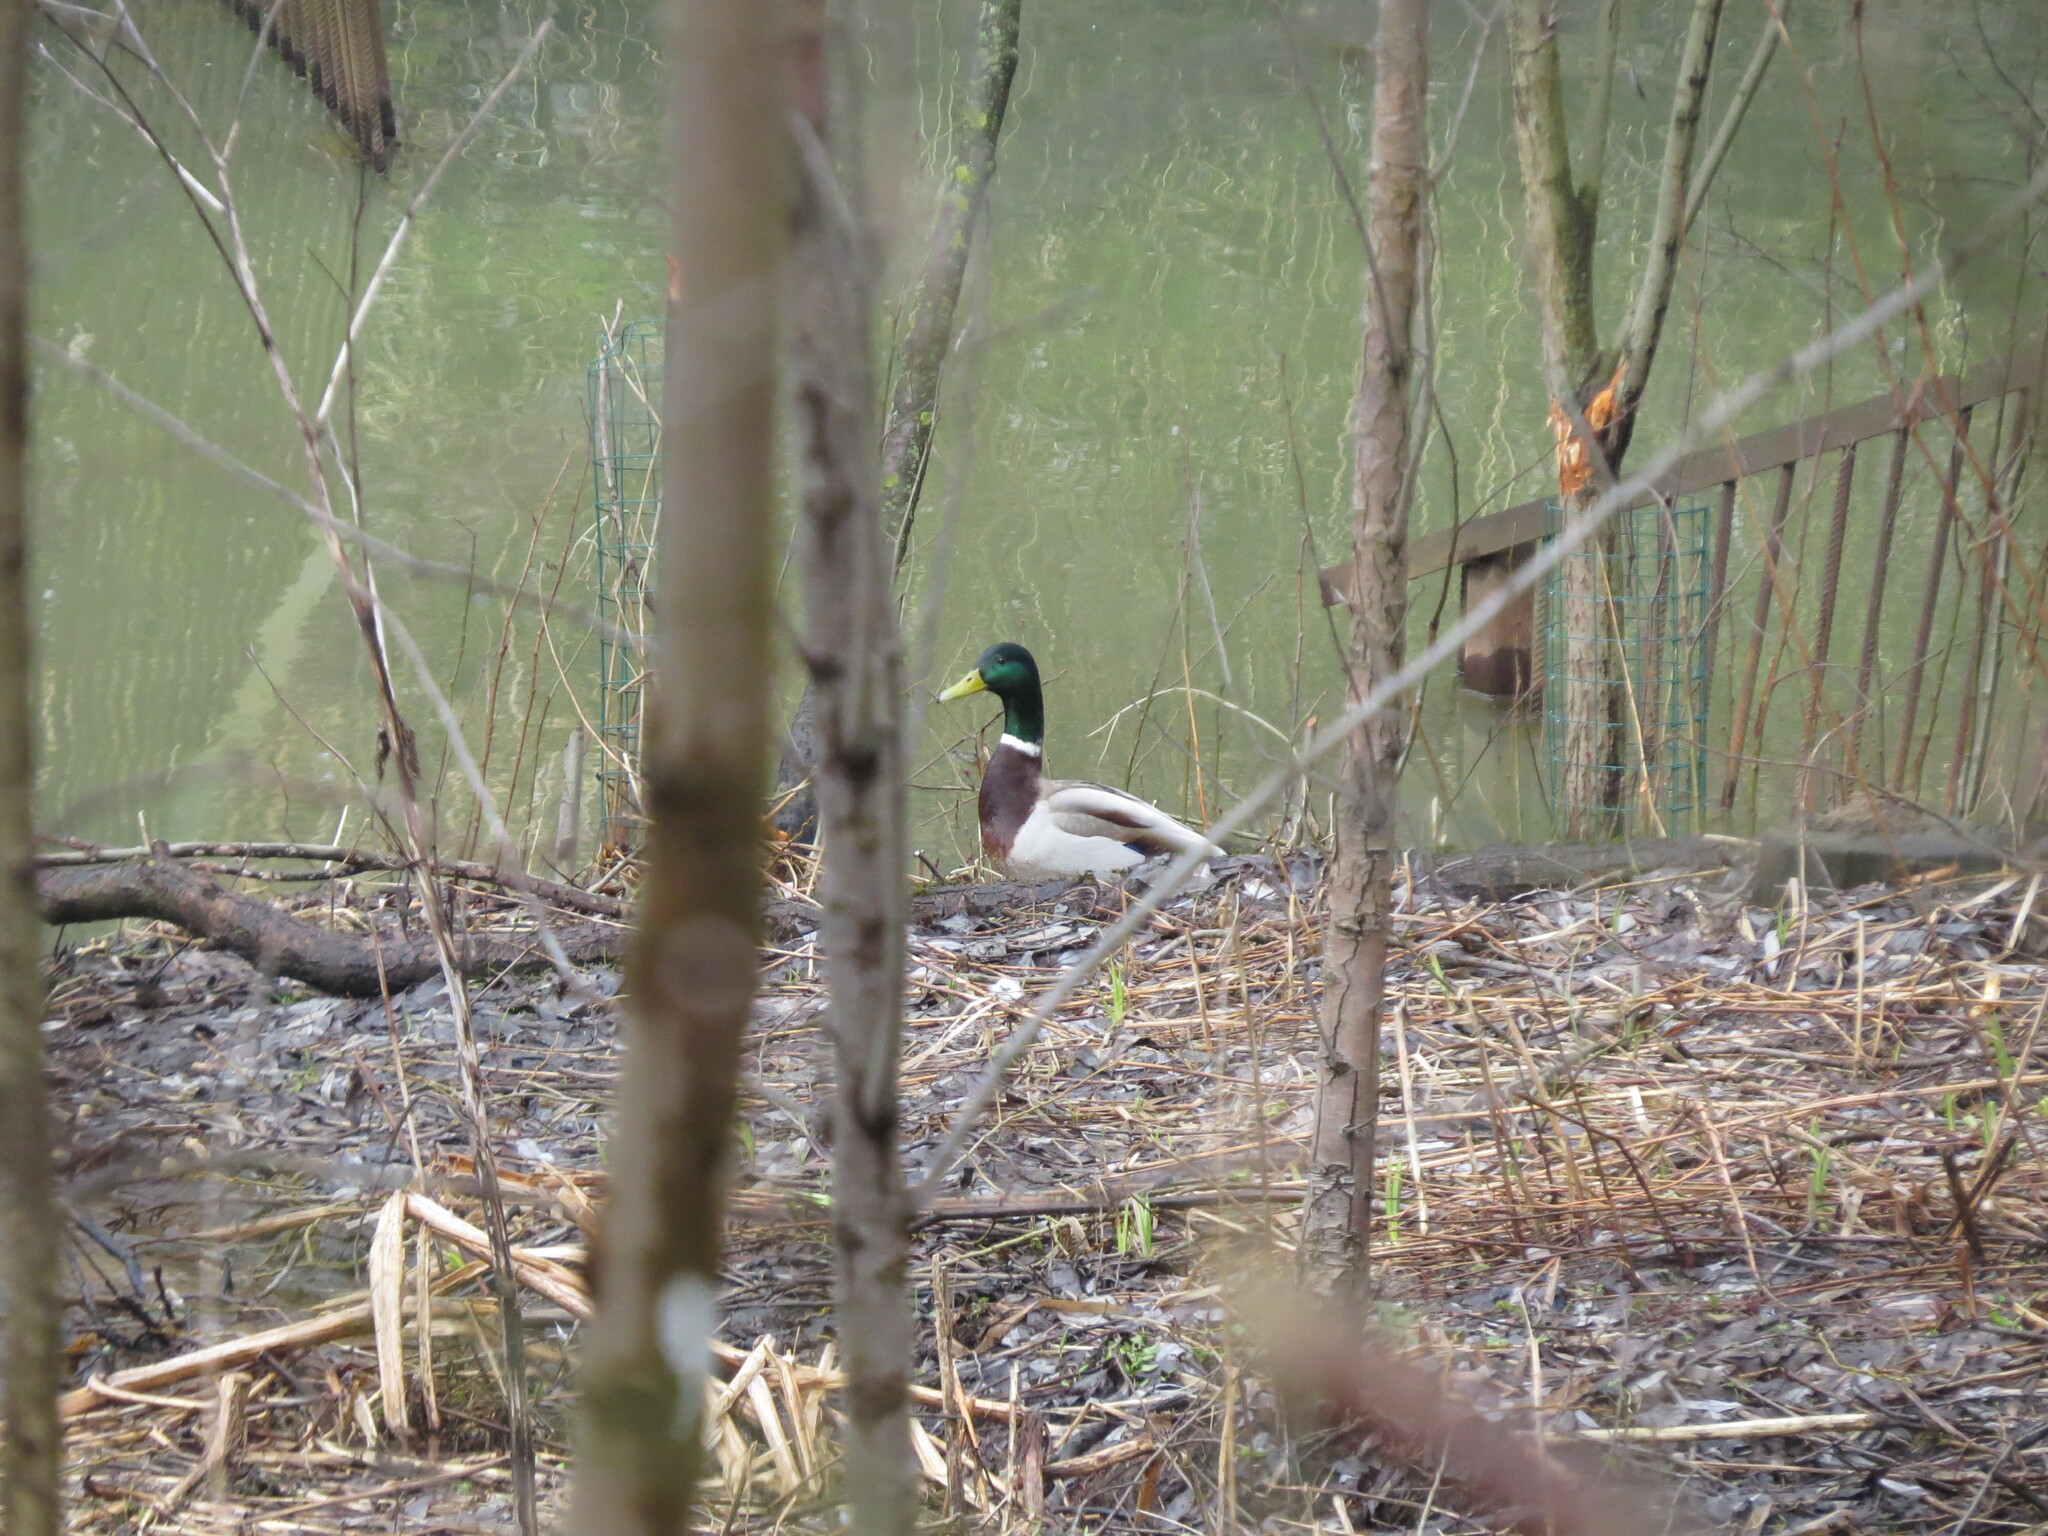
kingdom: Animalia
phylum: Chordata
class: Aves
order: Anseriformes
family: Anatidae
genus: Anas
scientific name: Anas platyrhynchos
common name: Mallard
